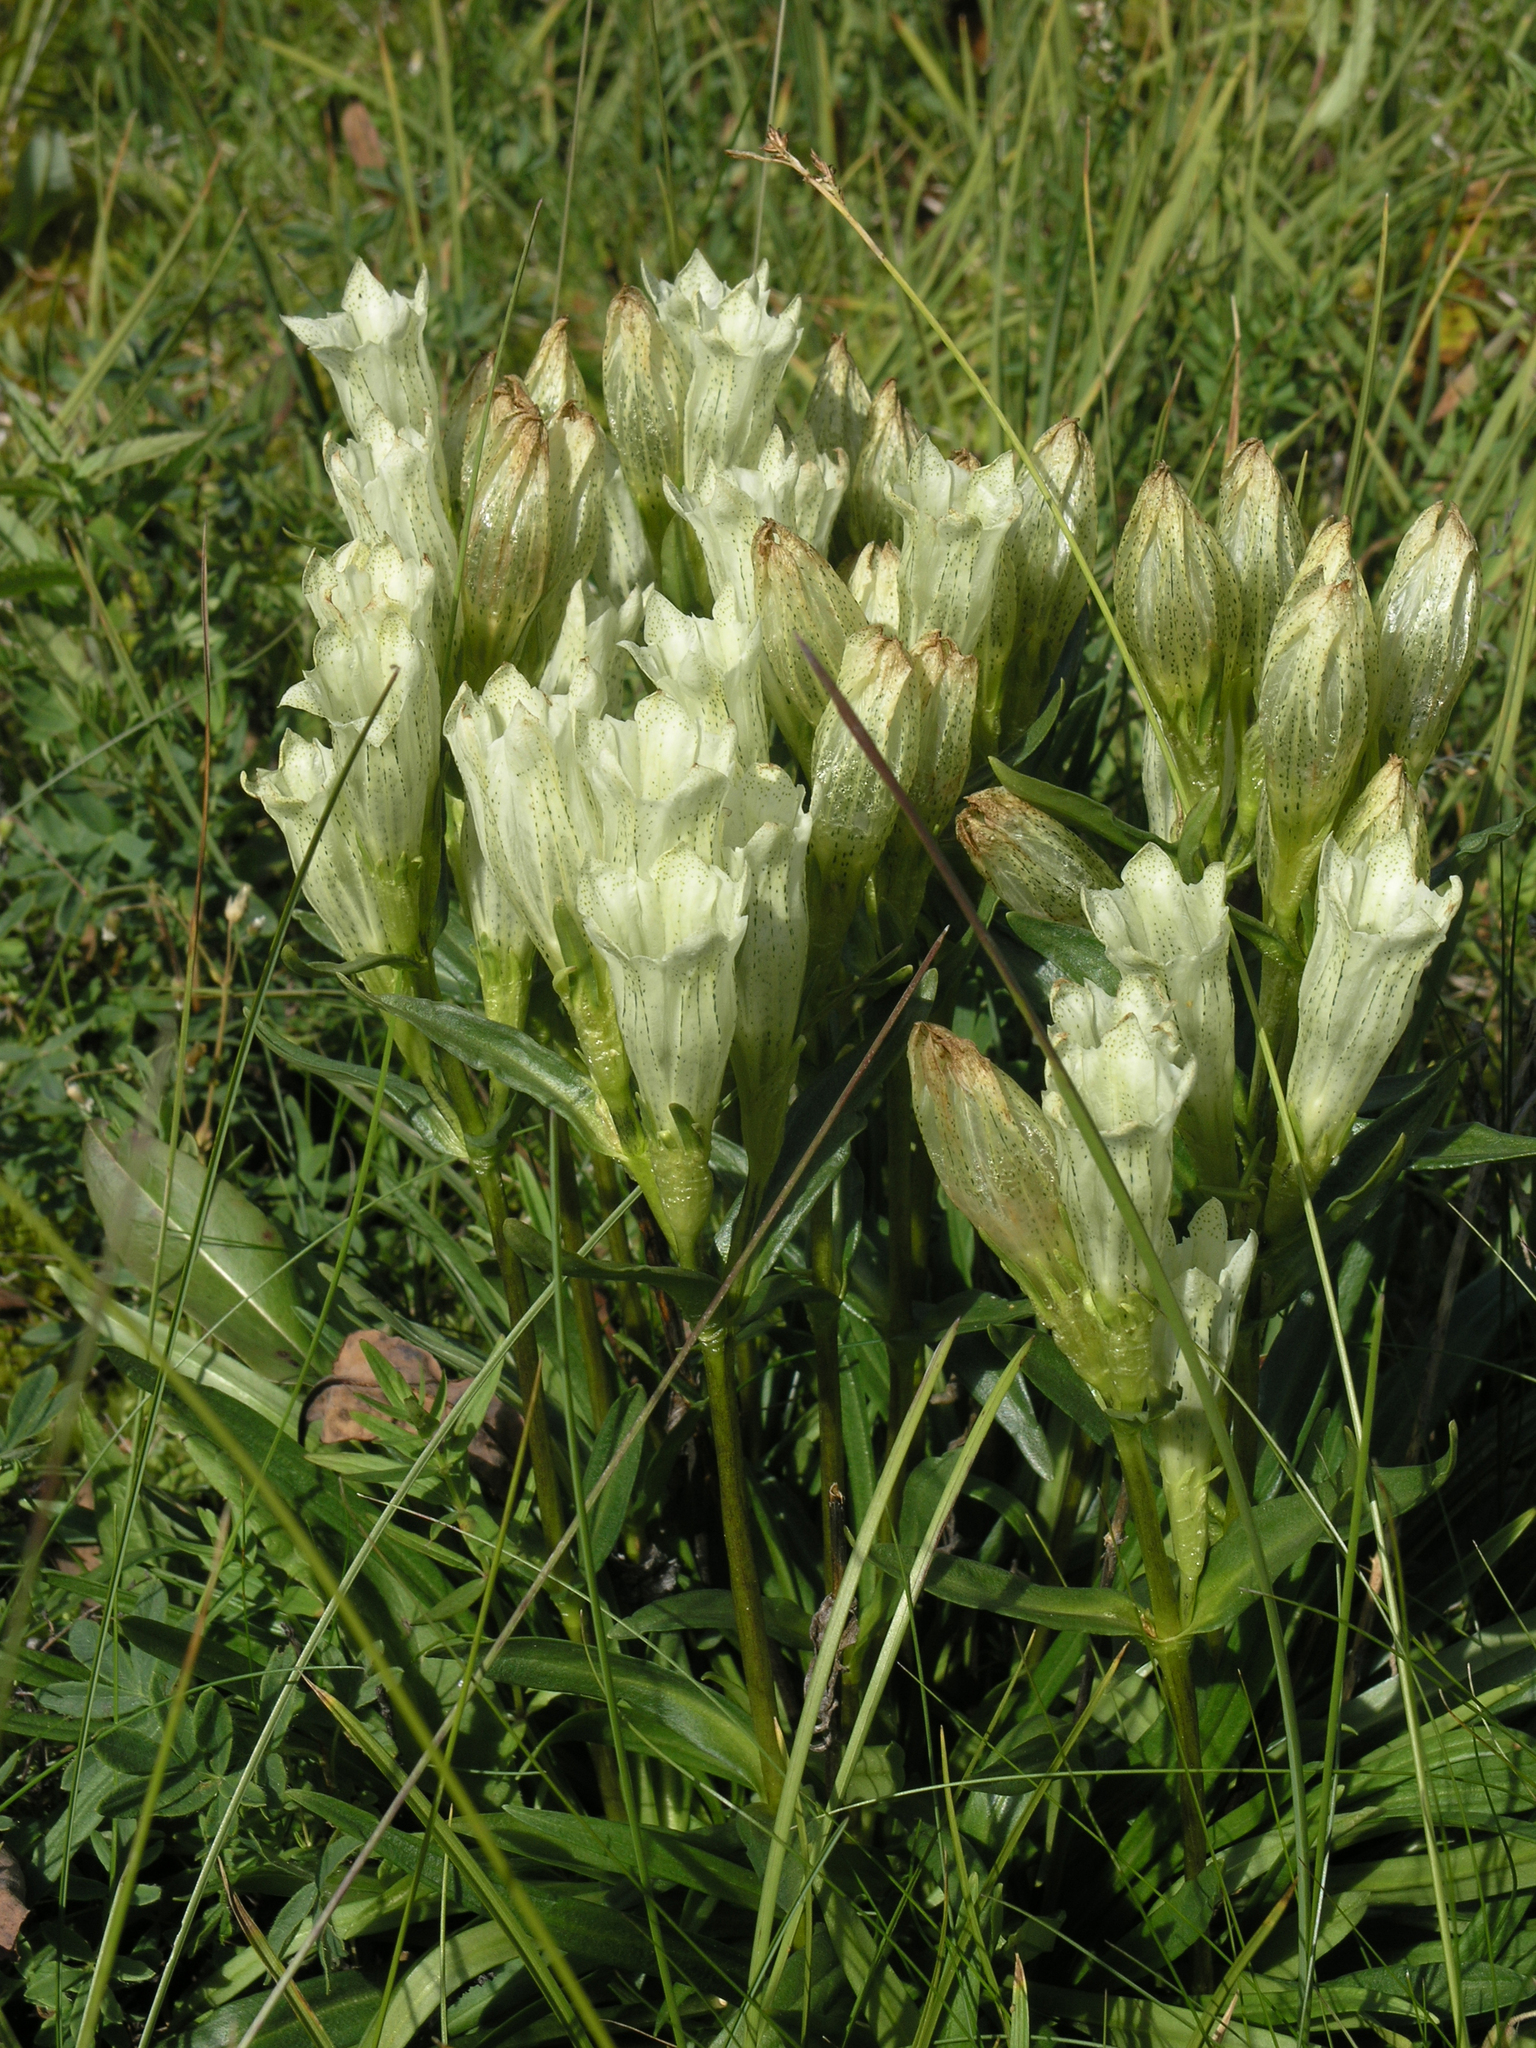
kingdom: Plantae
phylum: Tracheophyta
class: Magnoliopsida
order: Gentianales
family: Gentianaceae
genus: Gentiana
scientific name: Gentiana algida
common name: Arctic gentian
